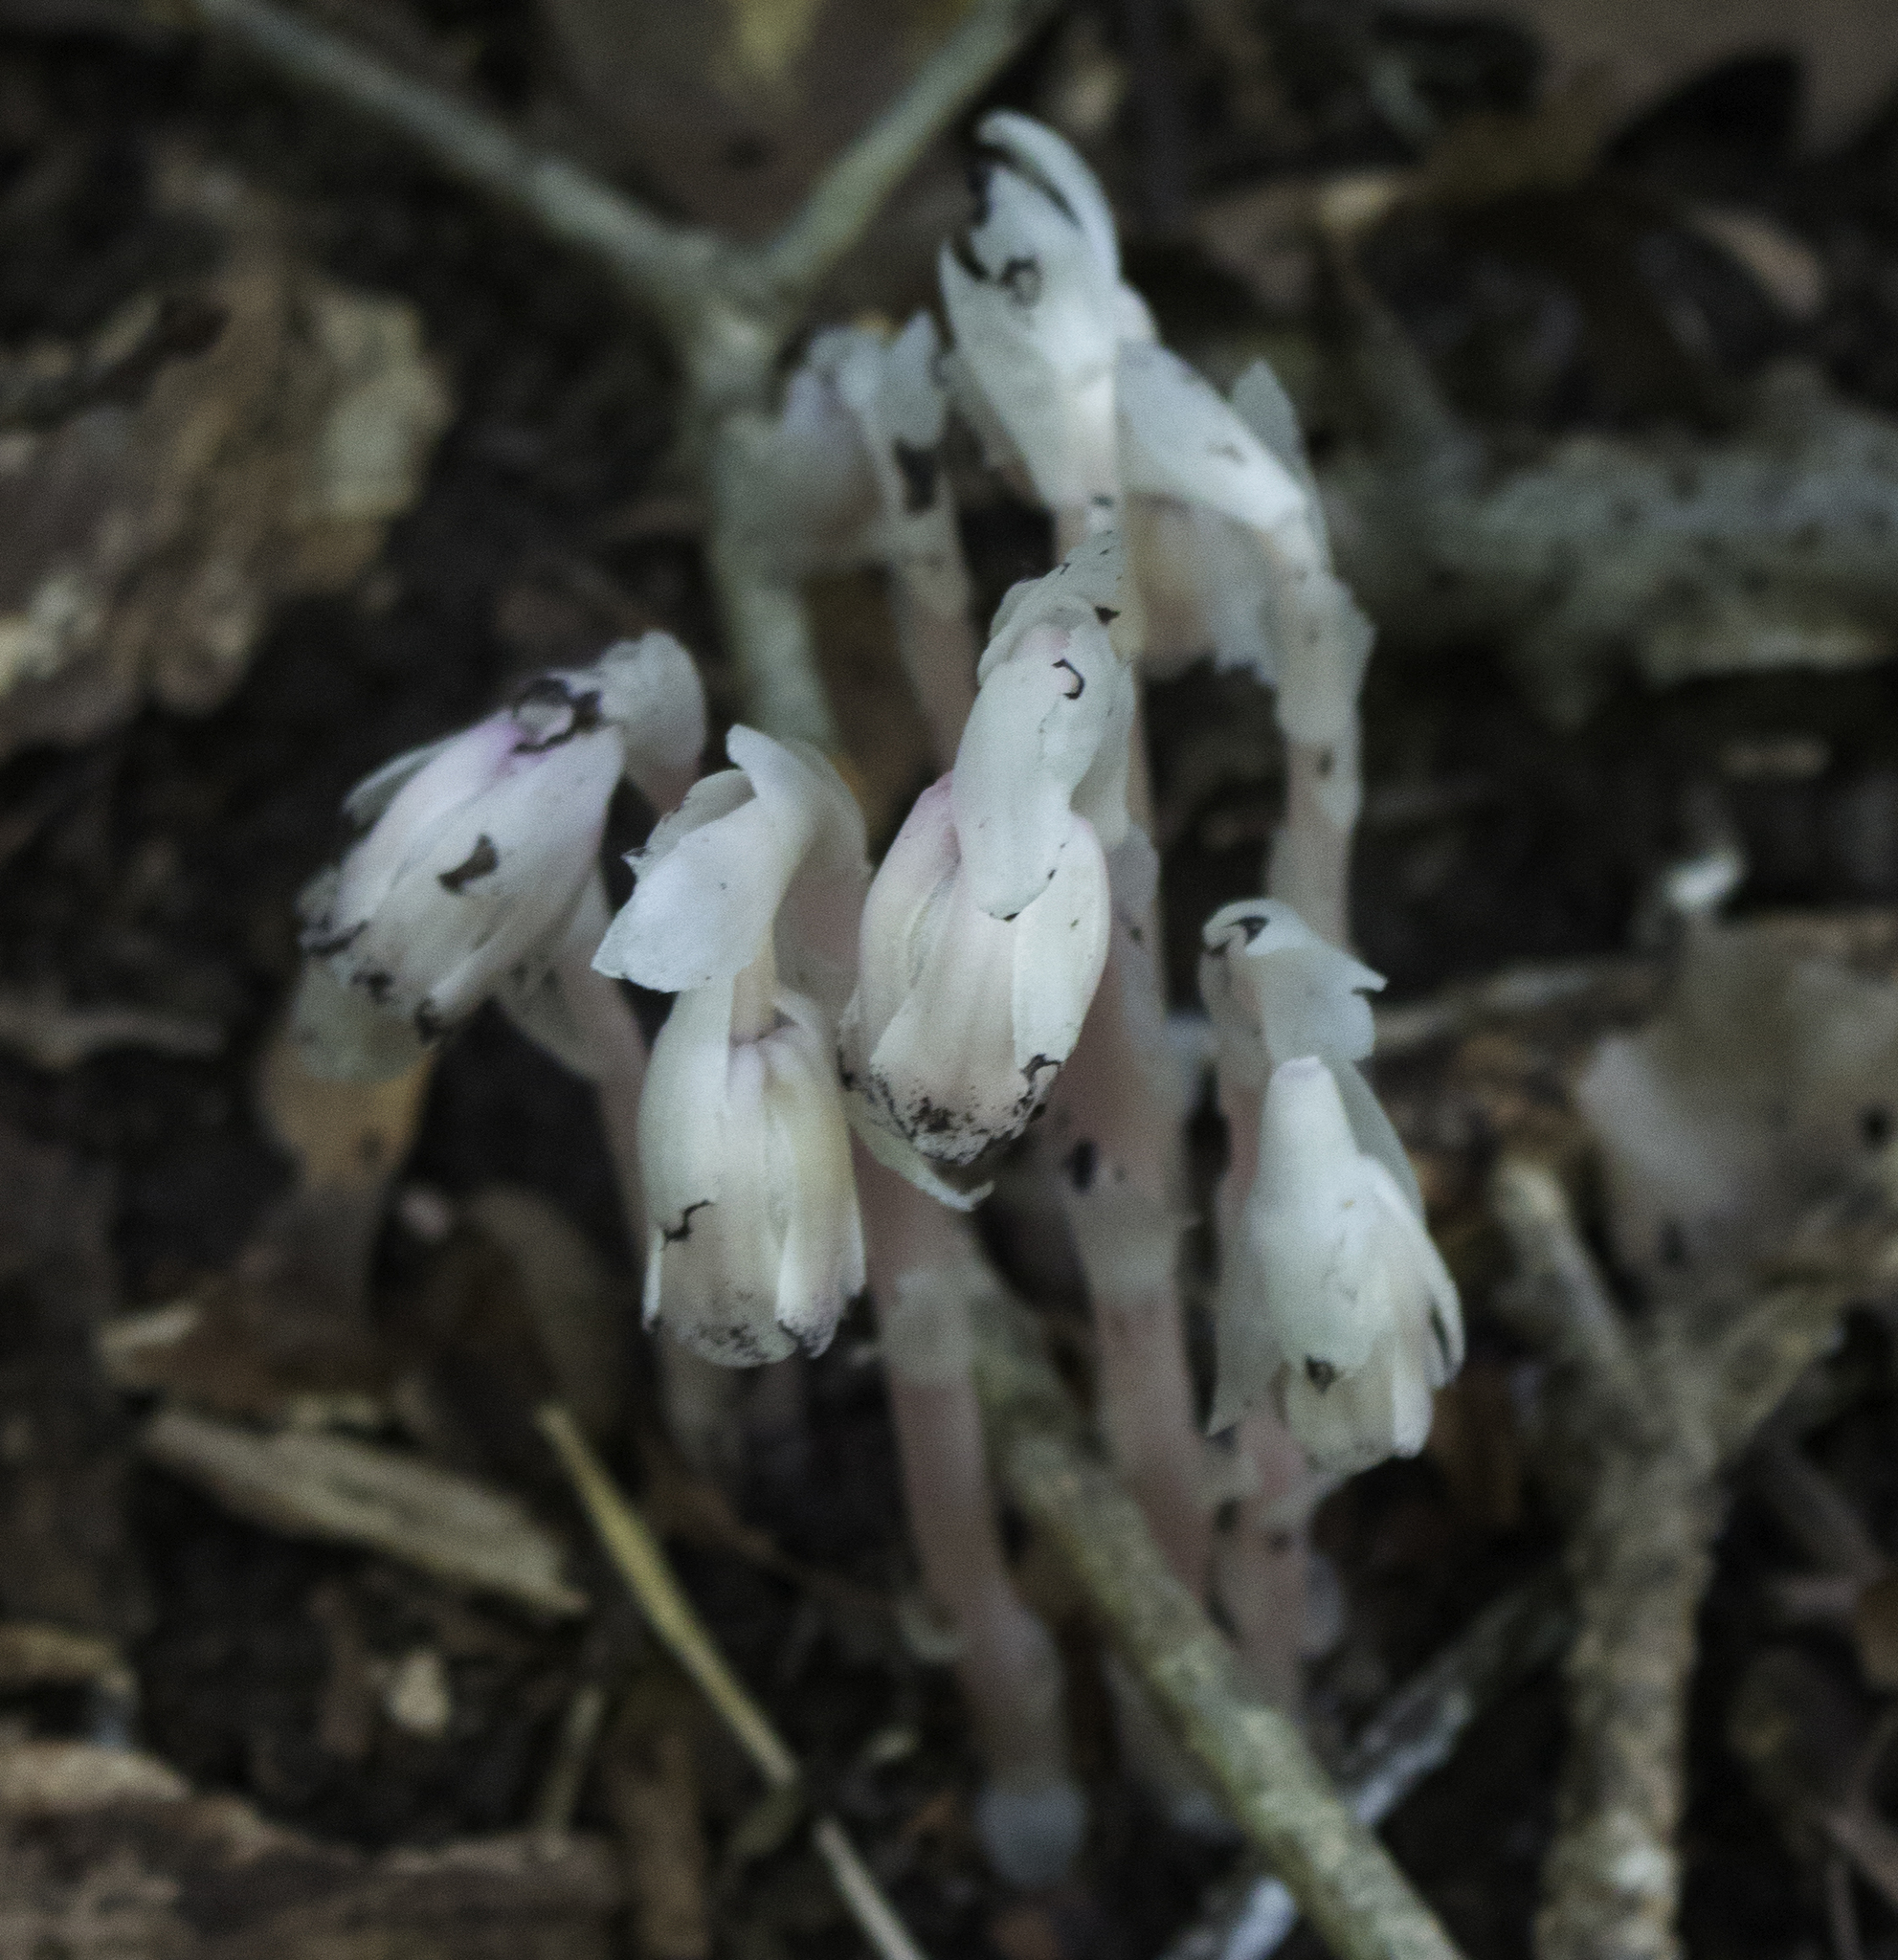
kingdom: Plantae
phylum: Tracheophyta
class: Magnoliopsida
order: Ericales
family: Ericaceae
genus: Monotropa
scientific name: Monotropa uniflora
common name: Convulsion root
